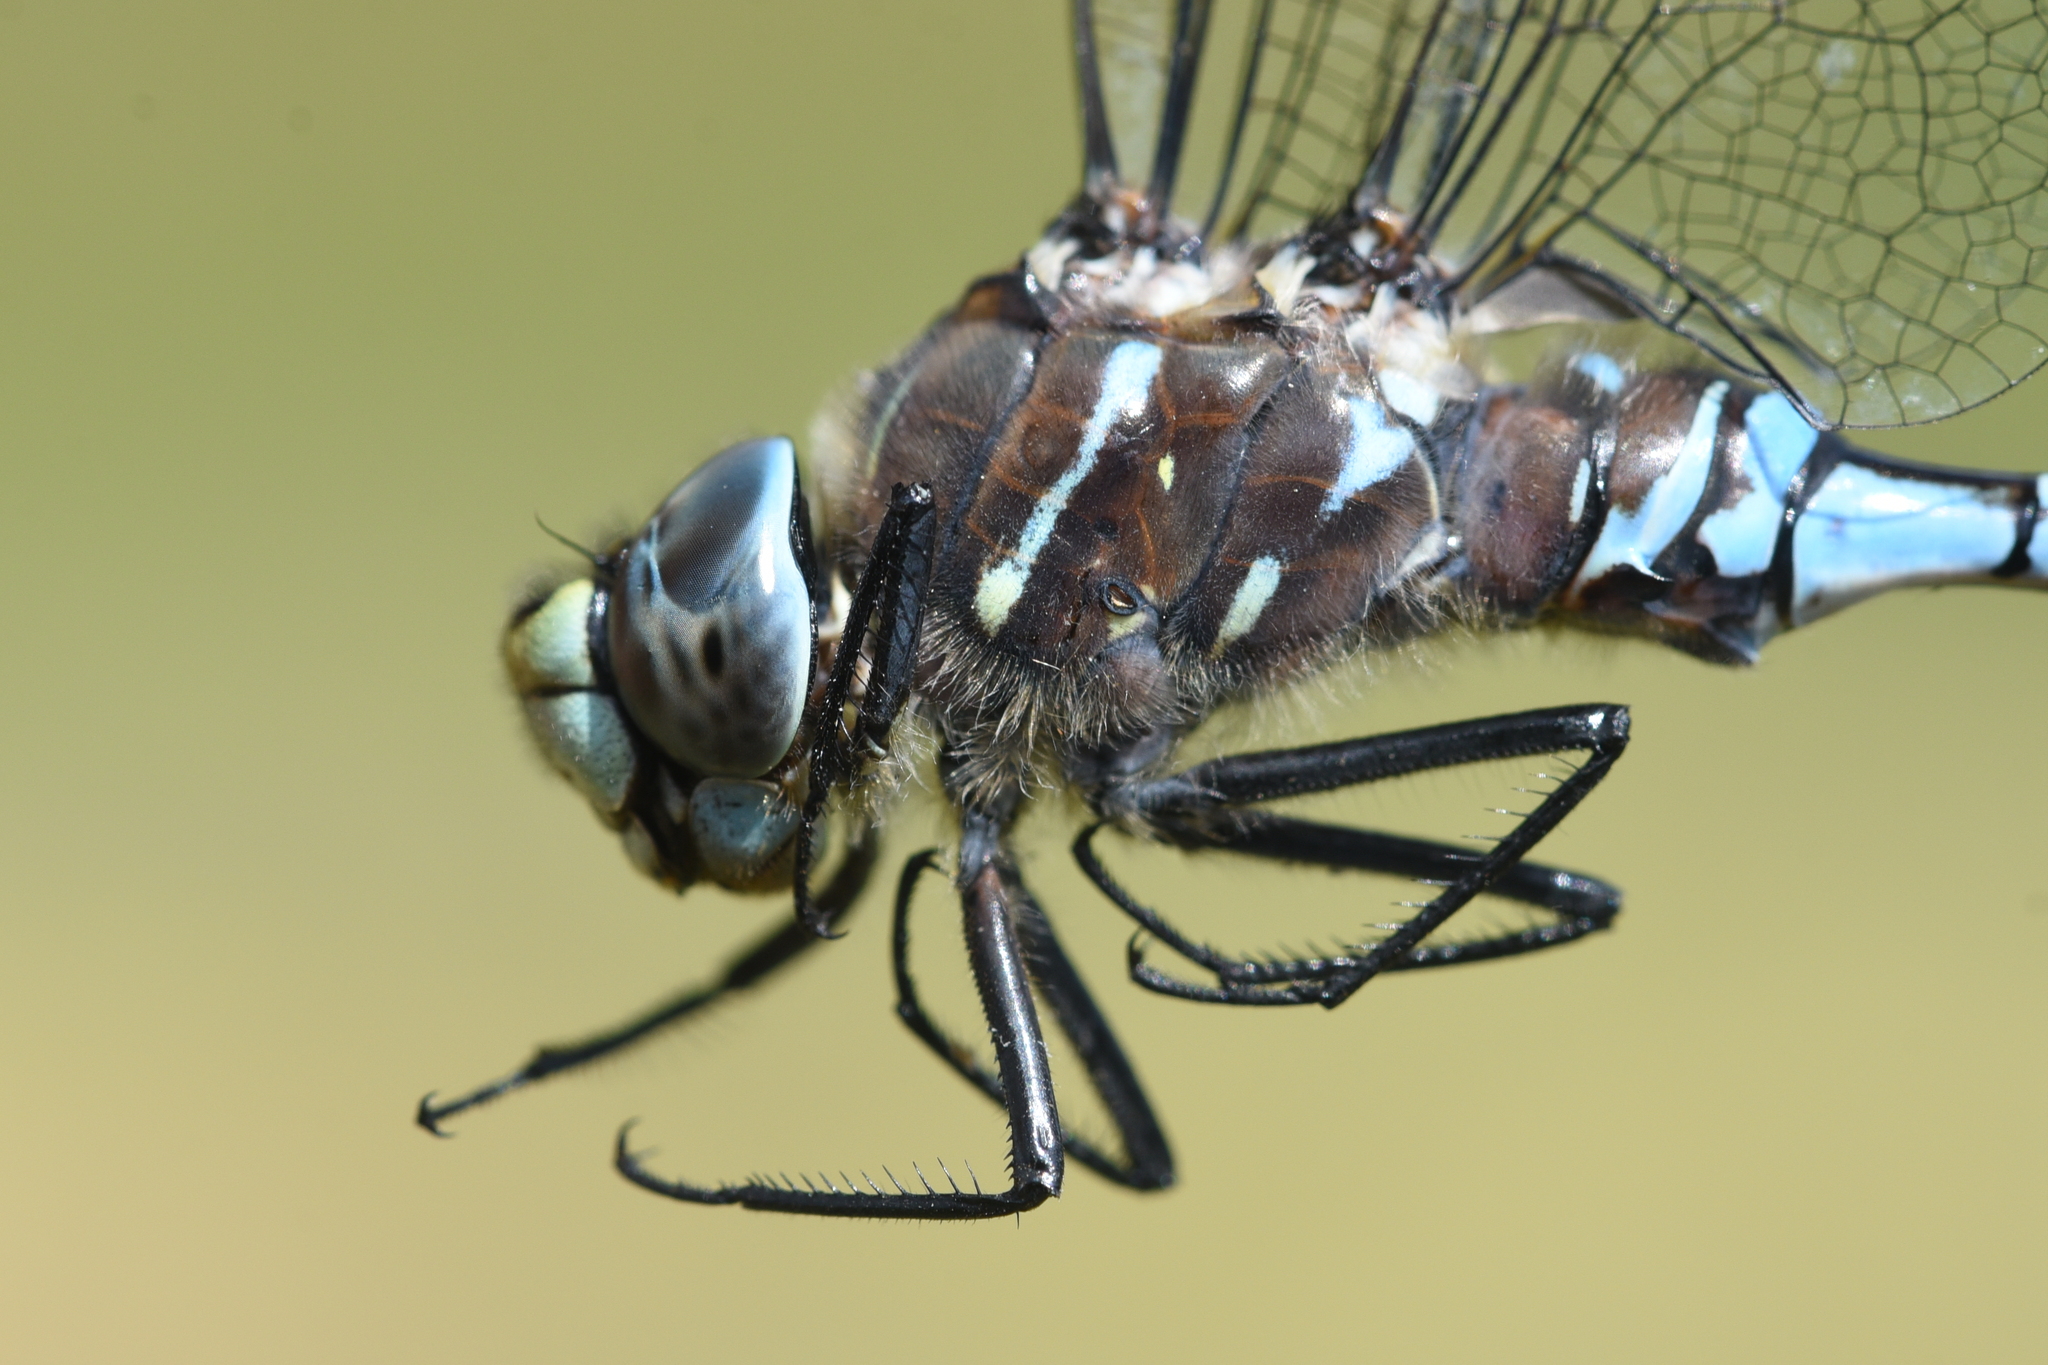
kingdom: Animalia
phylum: Arthropoda
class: Insecta
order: Odonata
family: Aeshnidae
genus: Aeshna
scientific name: Aeshna interrupta
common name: Variable darner
